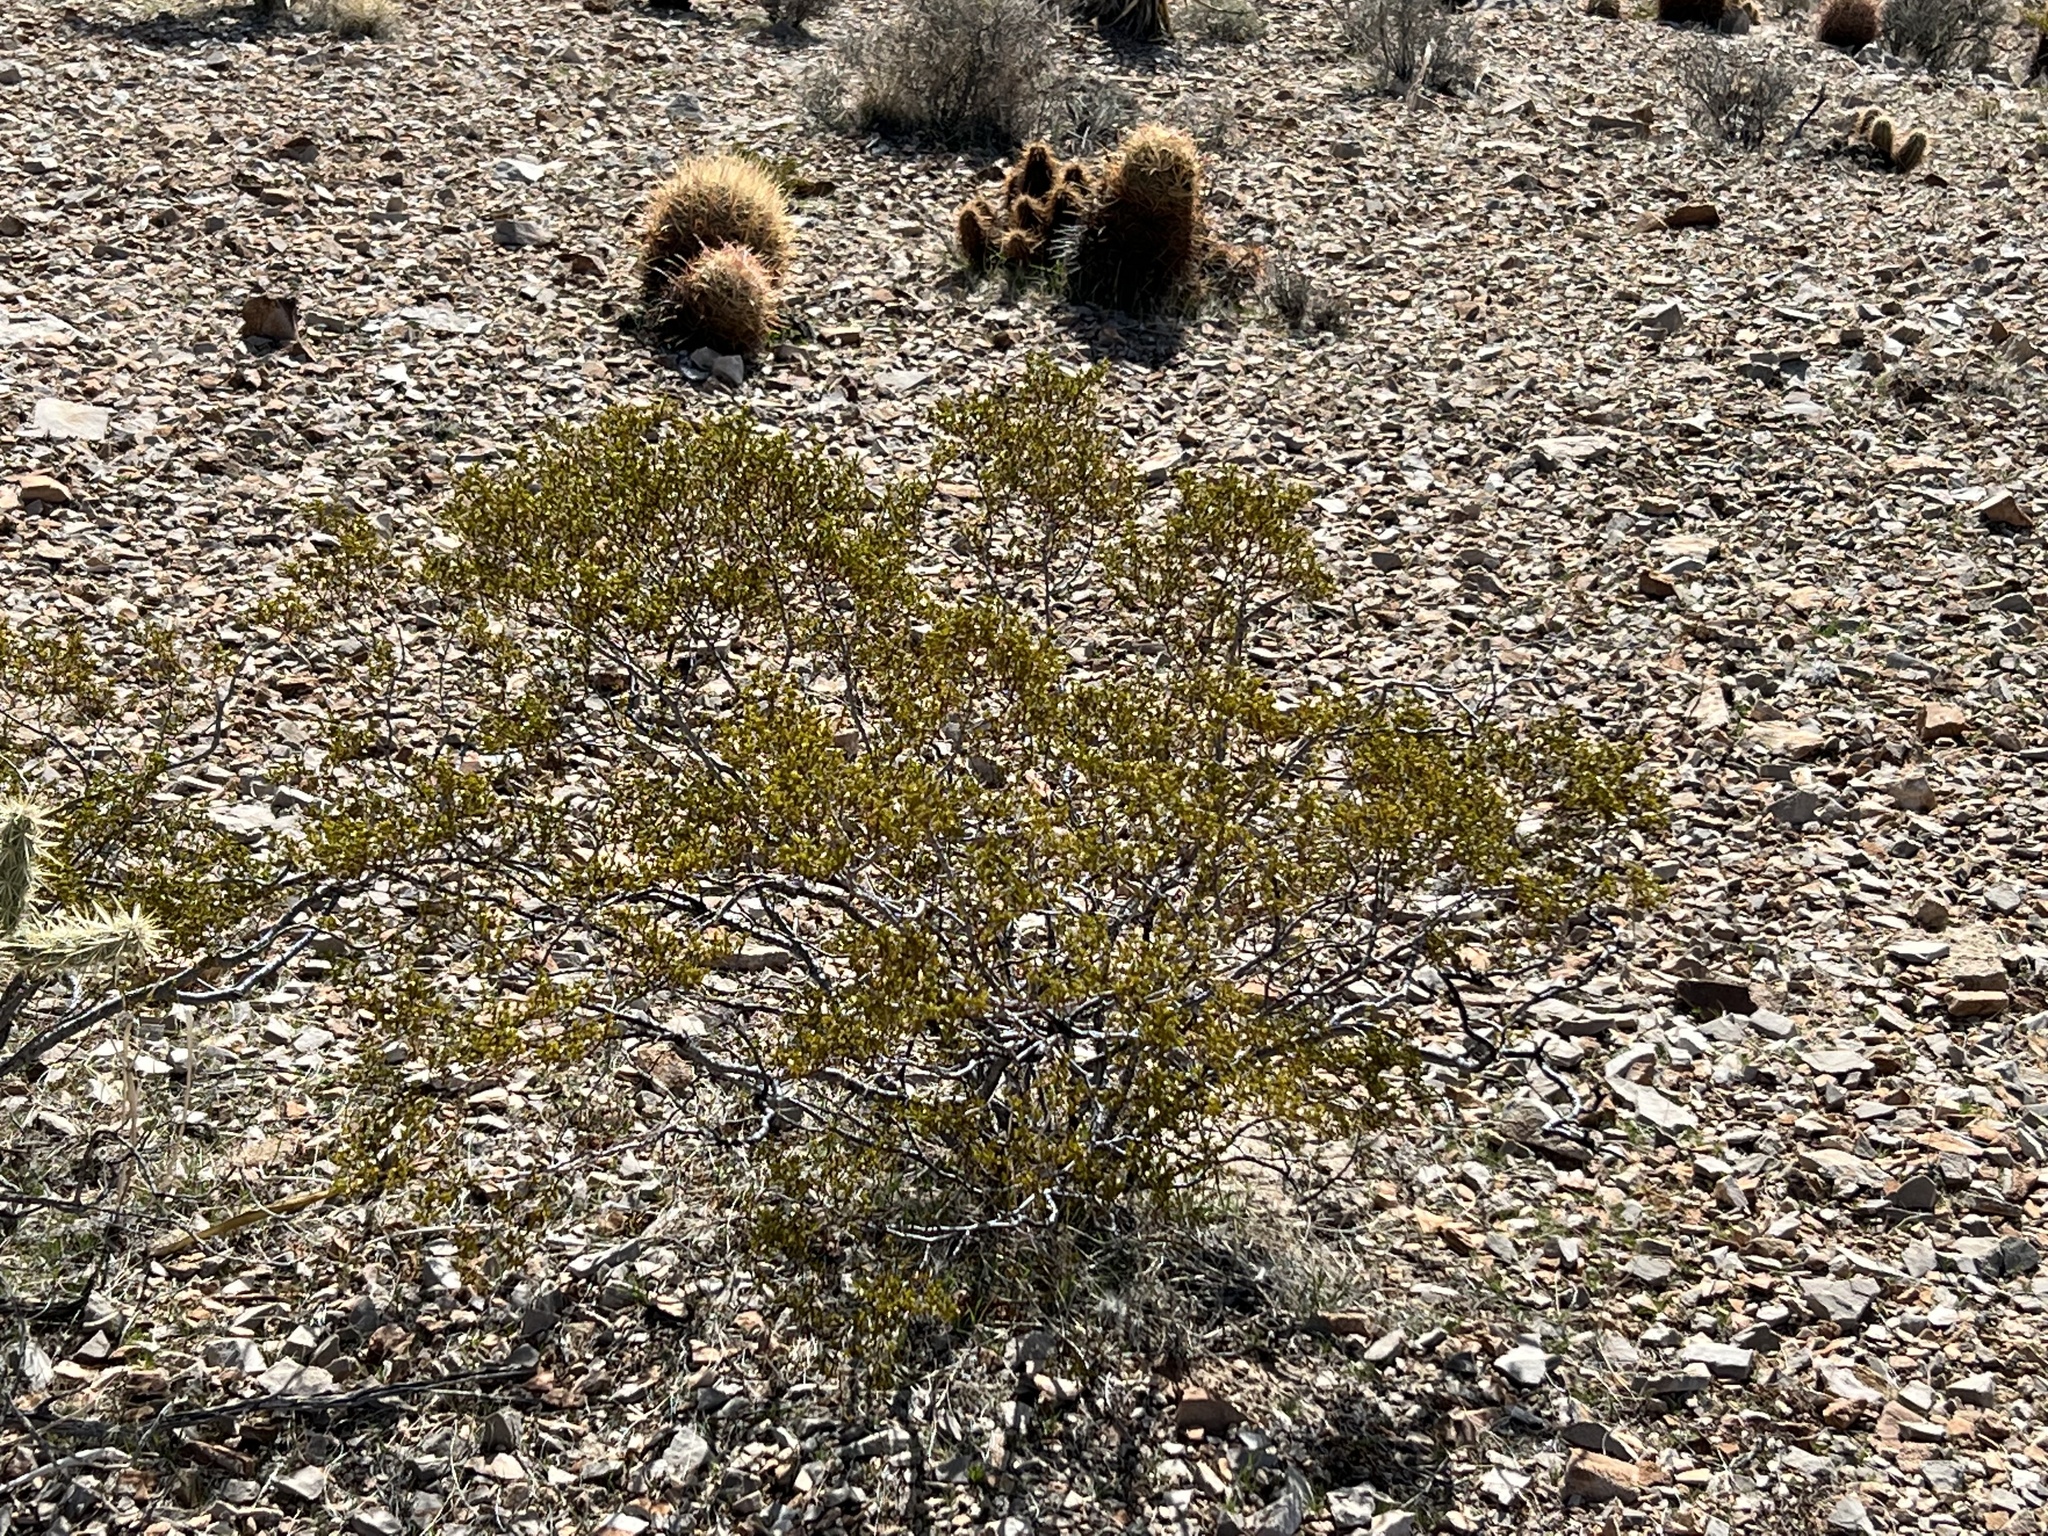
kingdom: Plantae
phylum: Tracheophyta
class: Magnoliopsida
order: Zygophyllales
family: Zygophyllaceae
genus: Larrea
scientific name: Larrea tridentata
